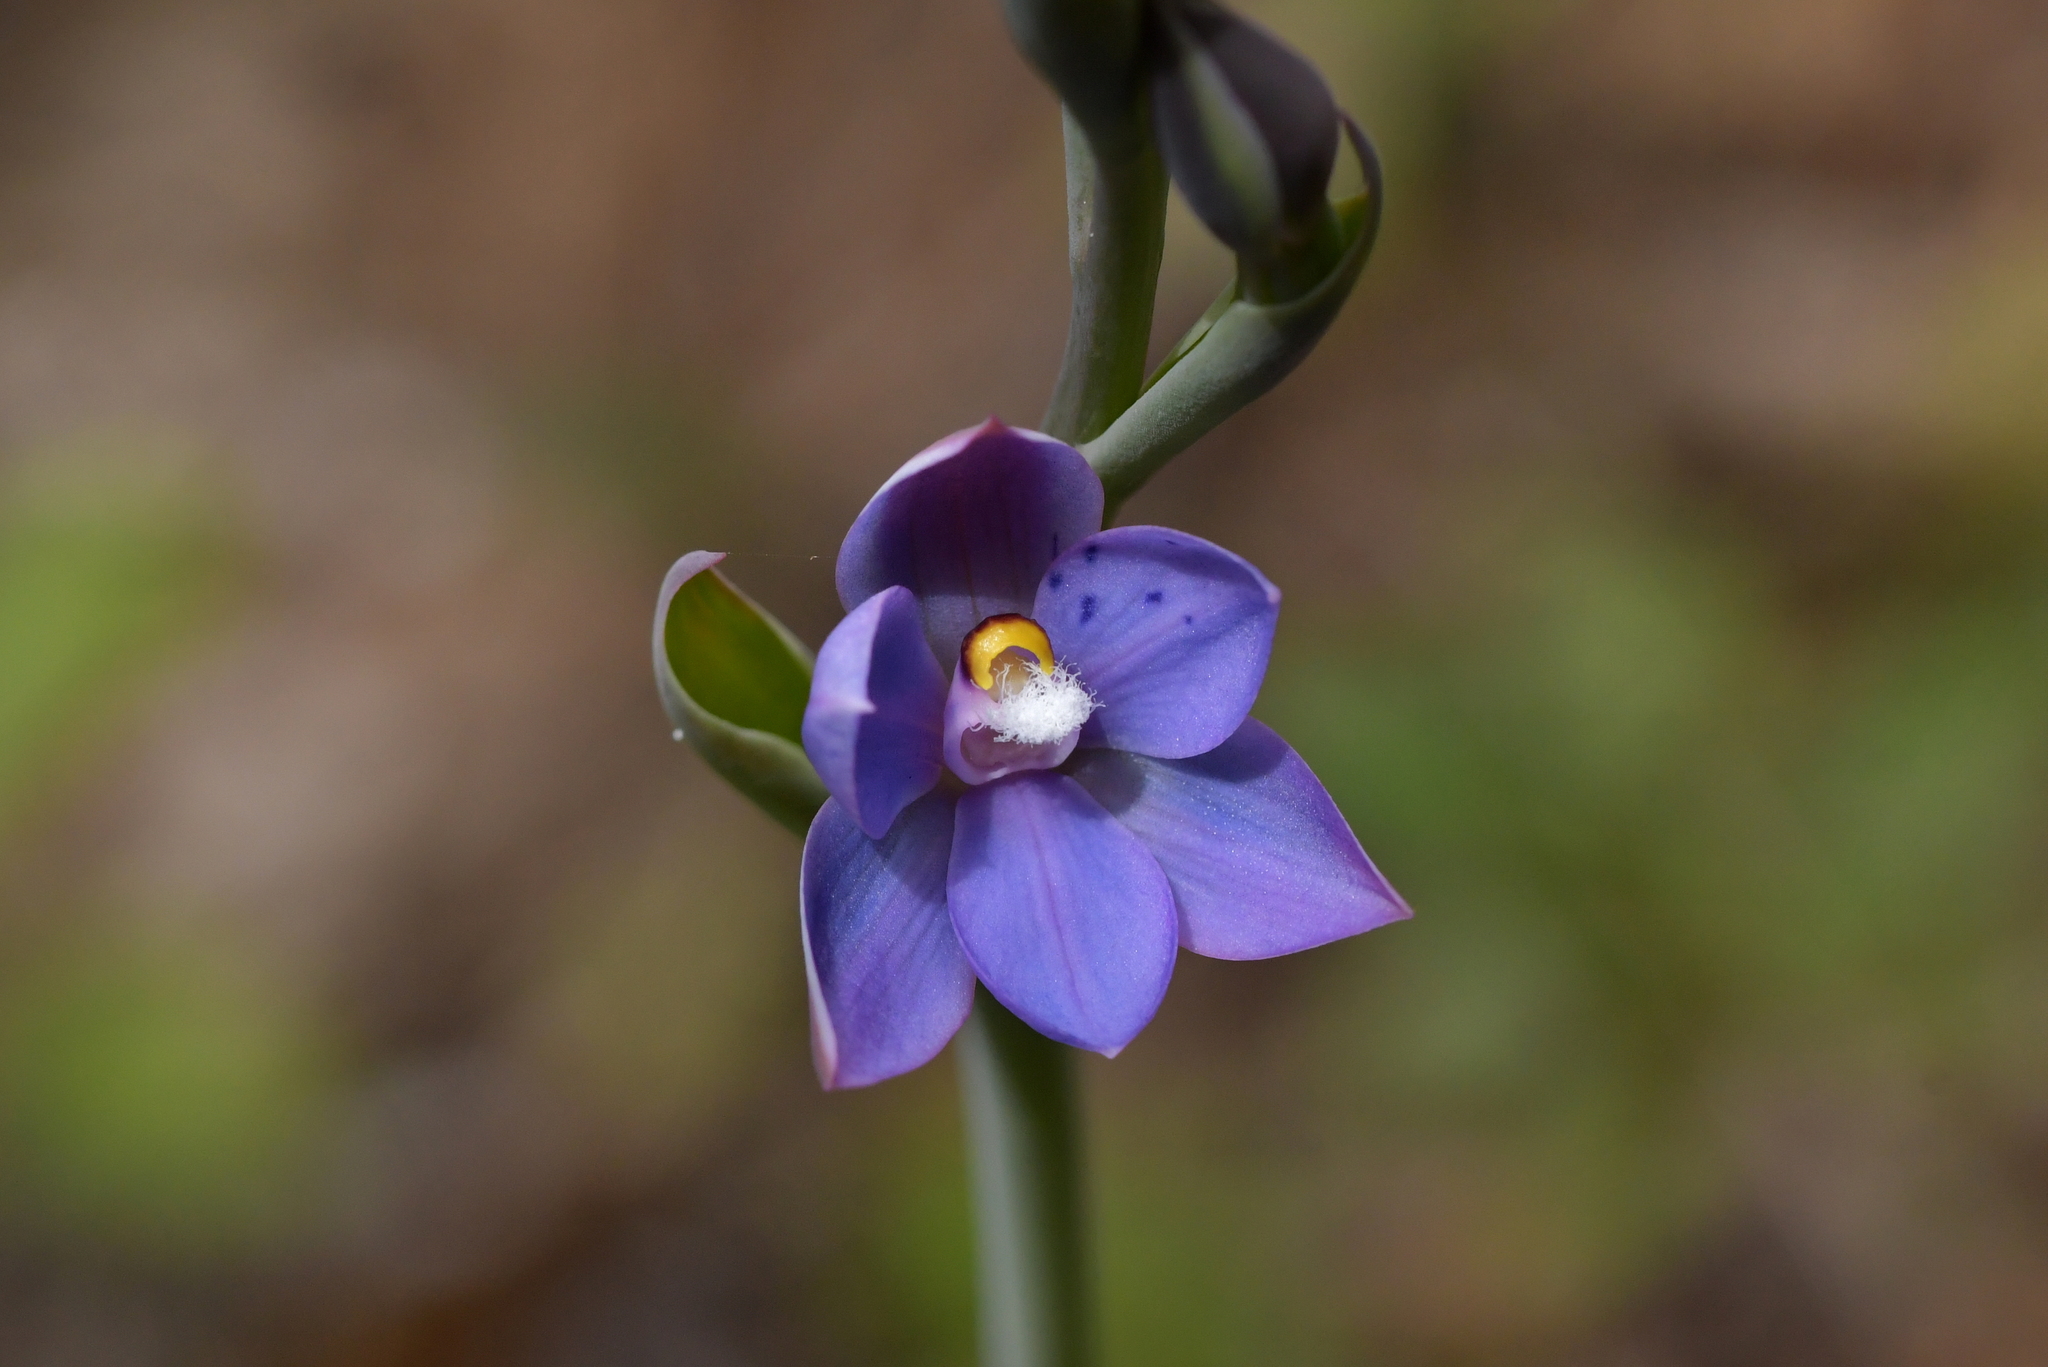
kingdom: Plantae
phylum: Tracheophyta
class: Liliopsida
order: Asparagales
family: Orchidaceae
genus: Thelymitra
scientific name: Thelymitra nervosa
